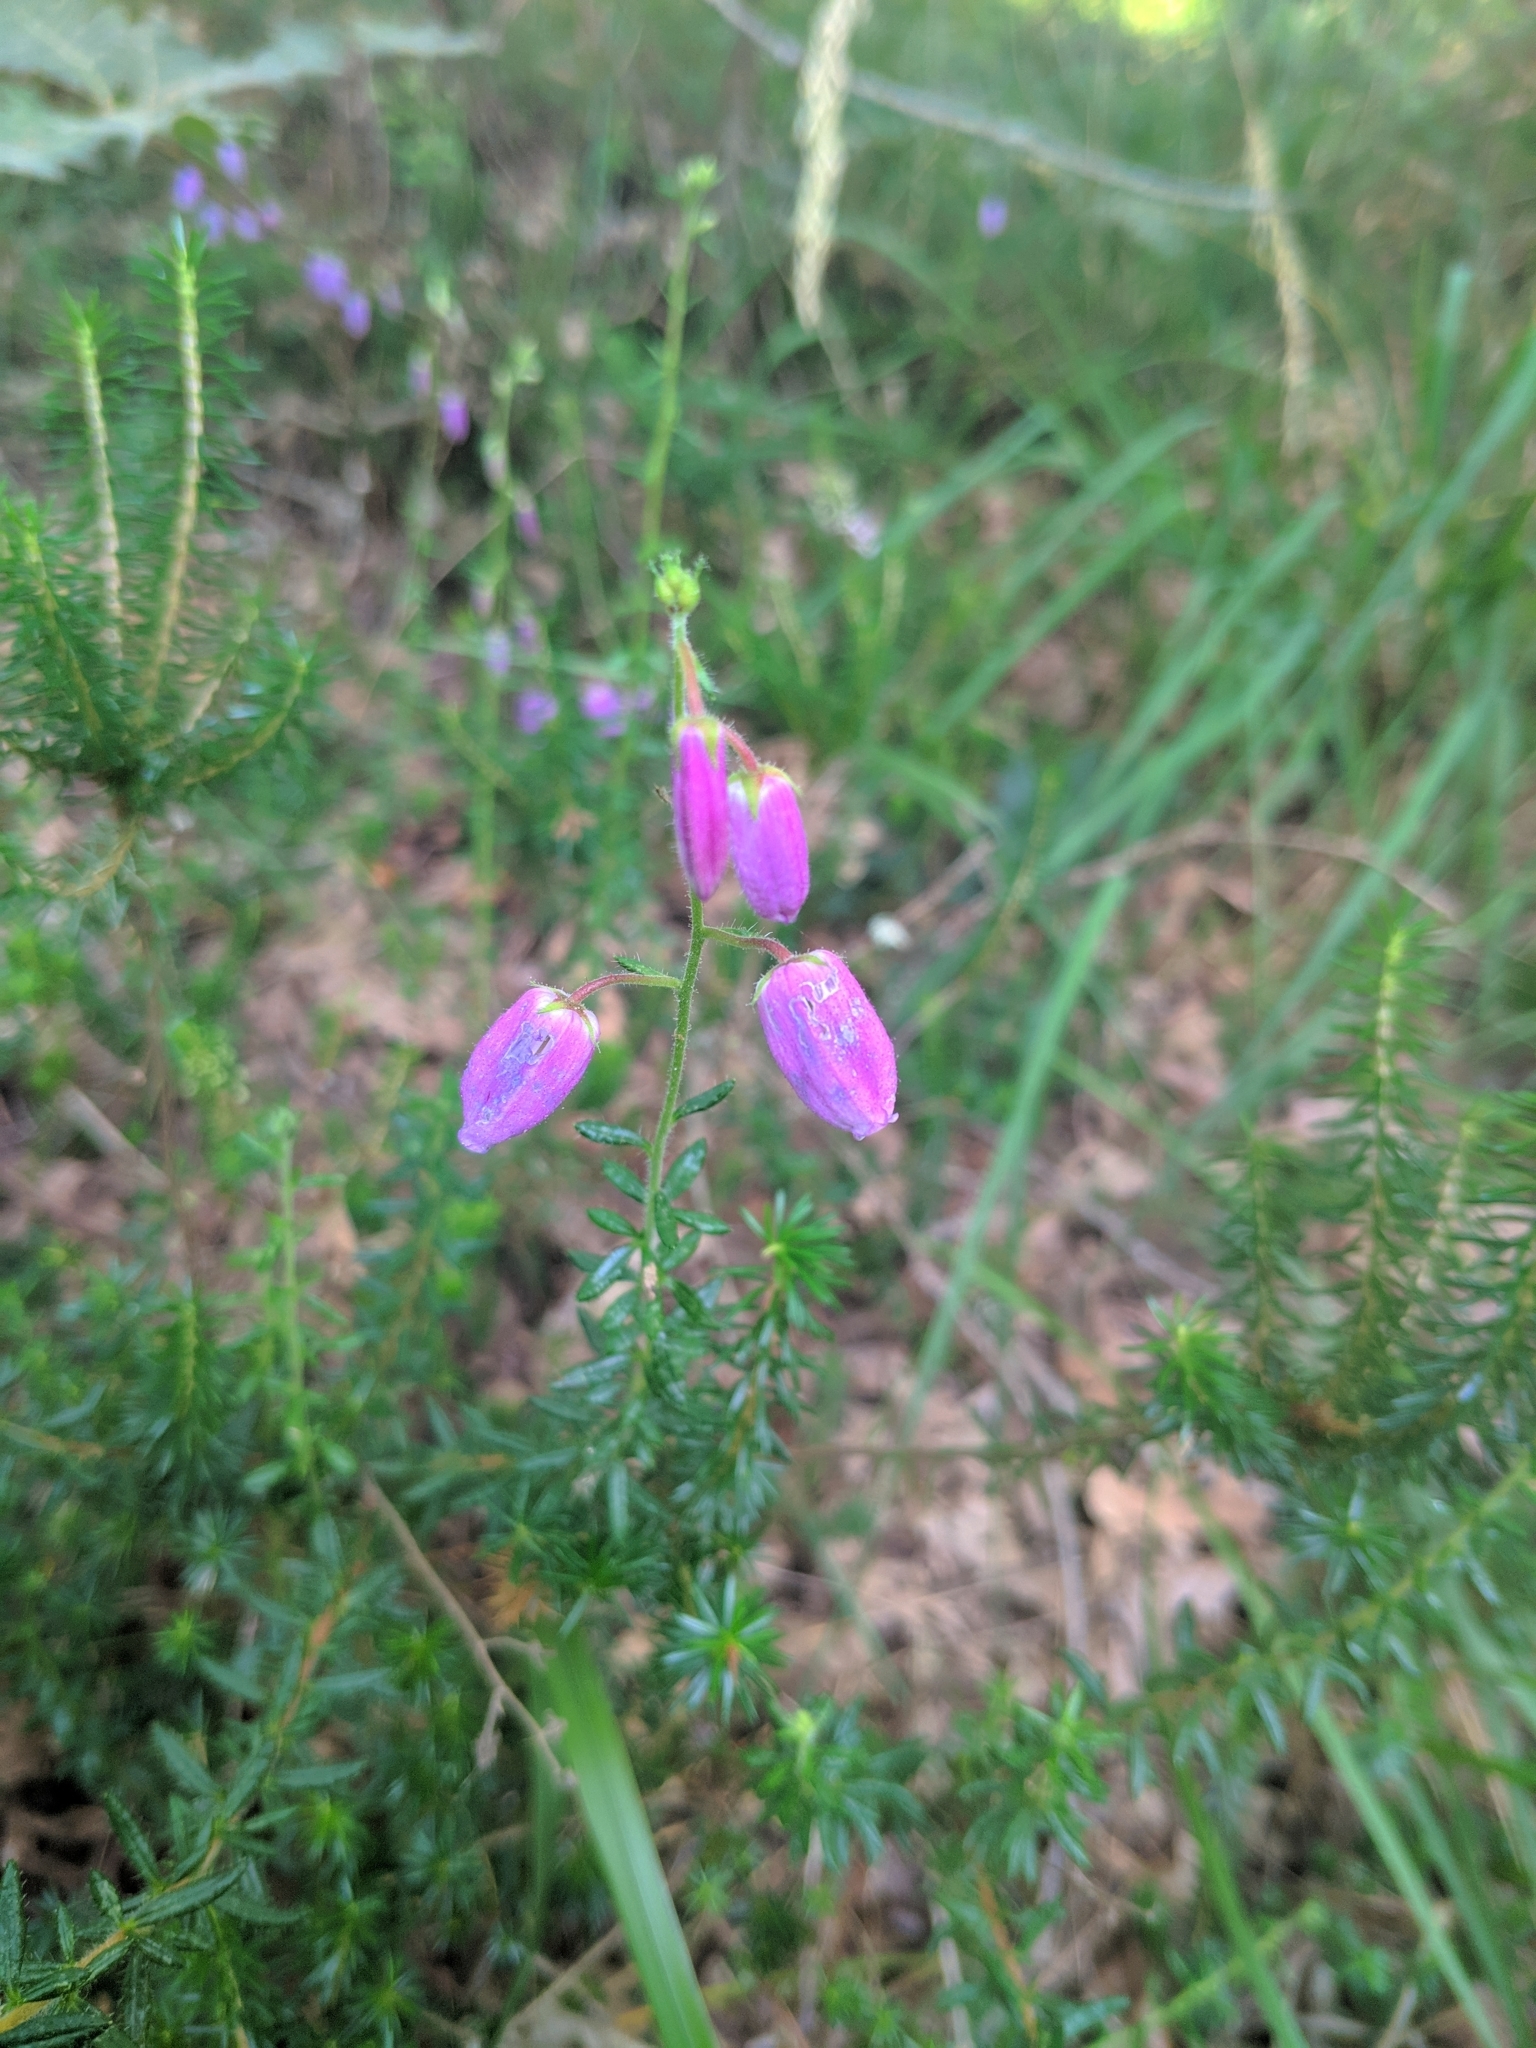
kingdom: Plantae
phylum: Tracheophyta
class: Magnoliopsida
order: Ericales
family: Ericaceae
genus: Daboecia
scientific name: Daboecia cantabrica
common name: St. dabeoc's-heath
